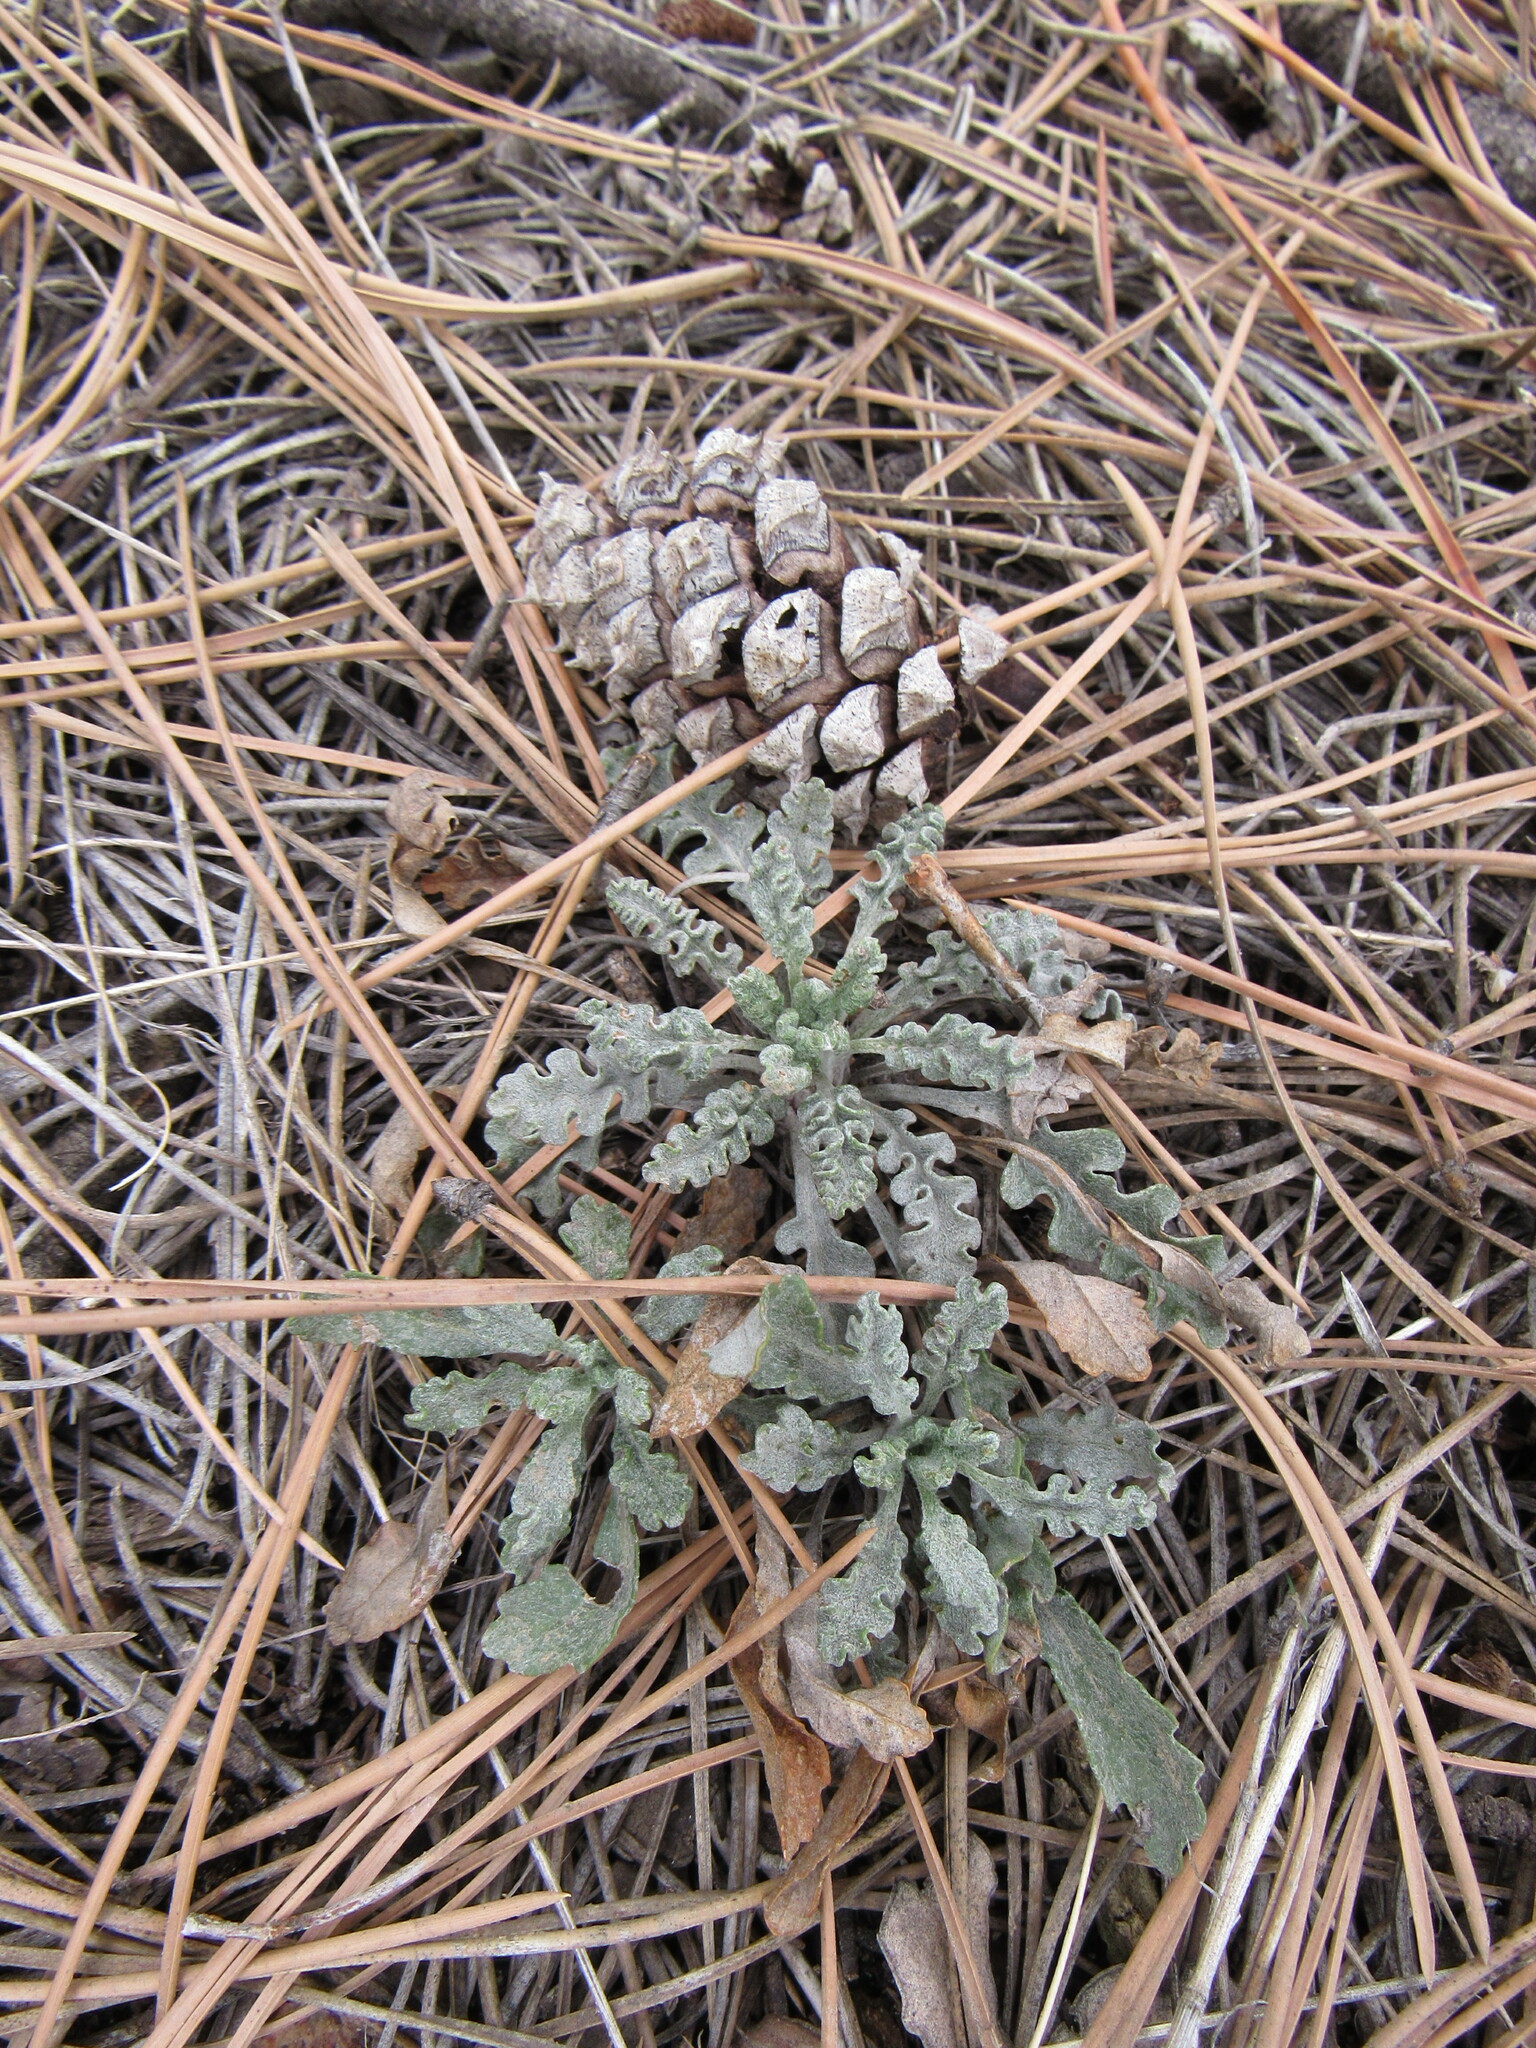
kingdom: Plantae
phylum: Tracheophyta
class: Magnoliopsida
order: Asterales
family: Asteraceae
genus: Packera
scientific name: Packera fendleri
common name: Notch-leaf butterweed
